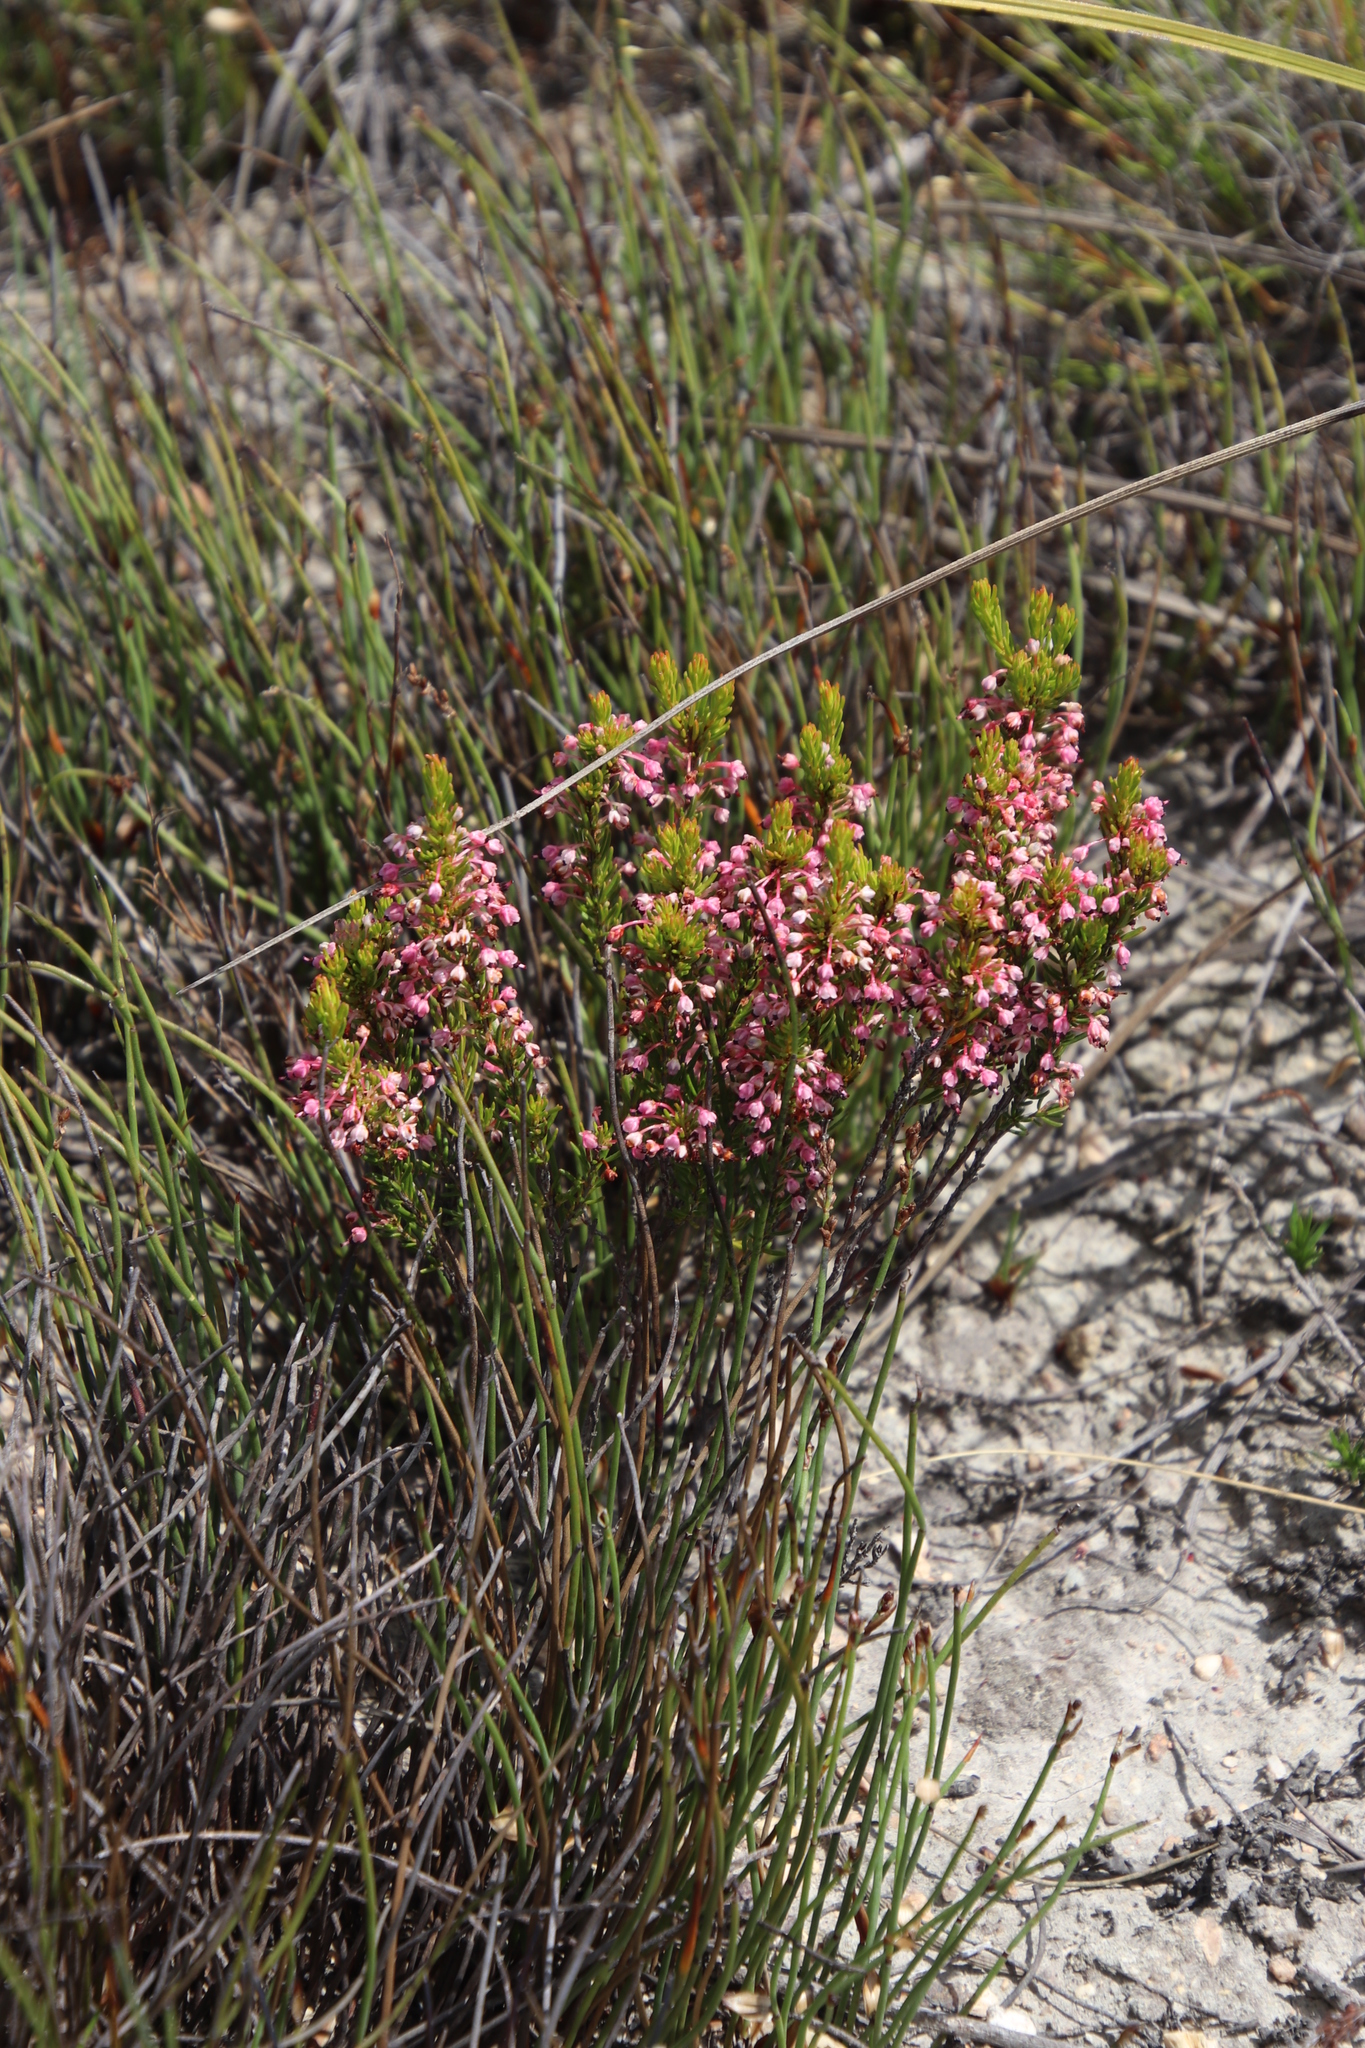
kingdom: Plantae
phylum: Tracheophyta
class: Magnoliopsida
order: Ericales
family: Ericaceae
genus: Erica
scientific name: Erica rubiginosa
